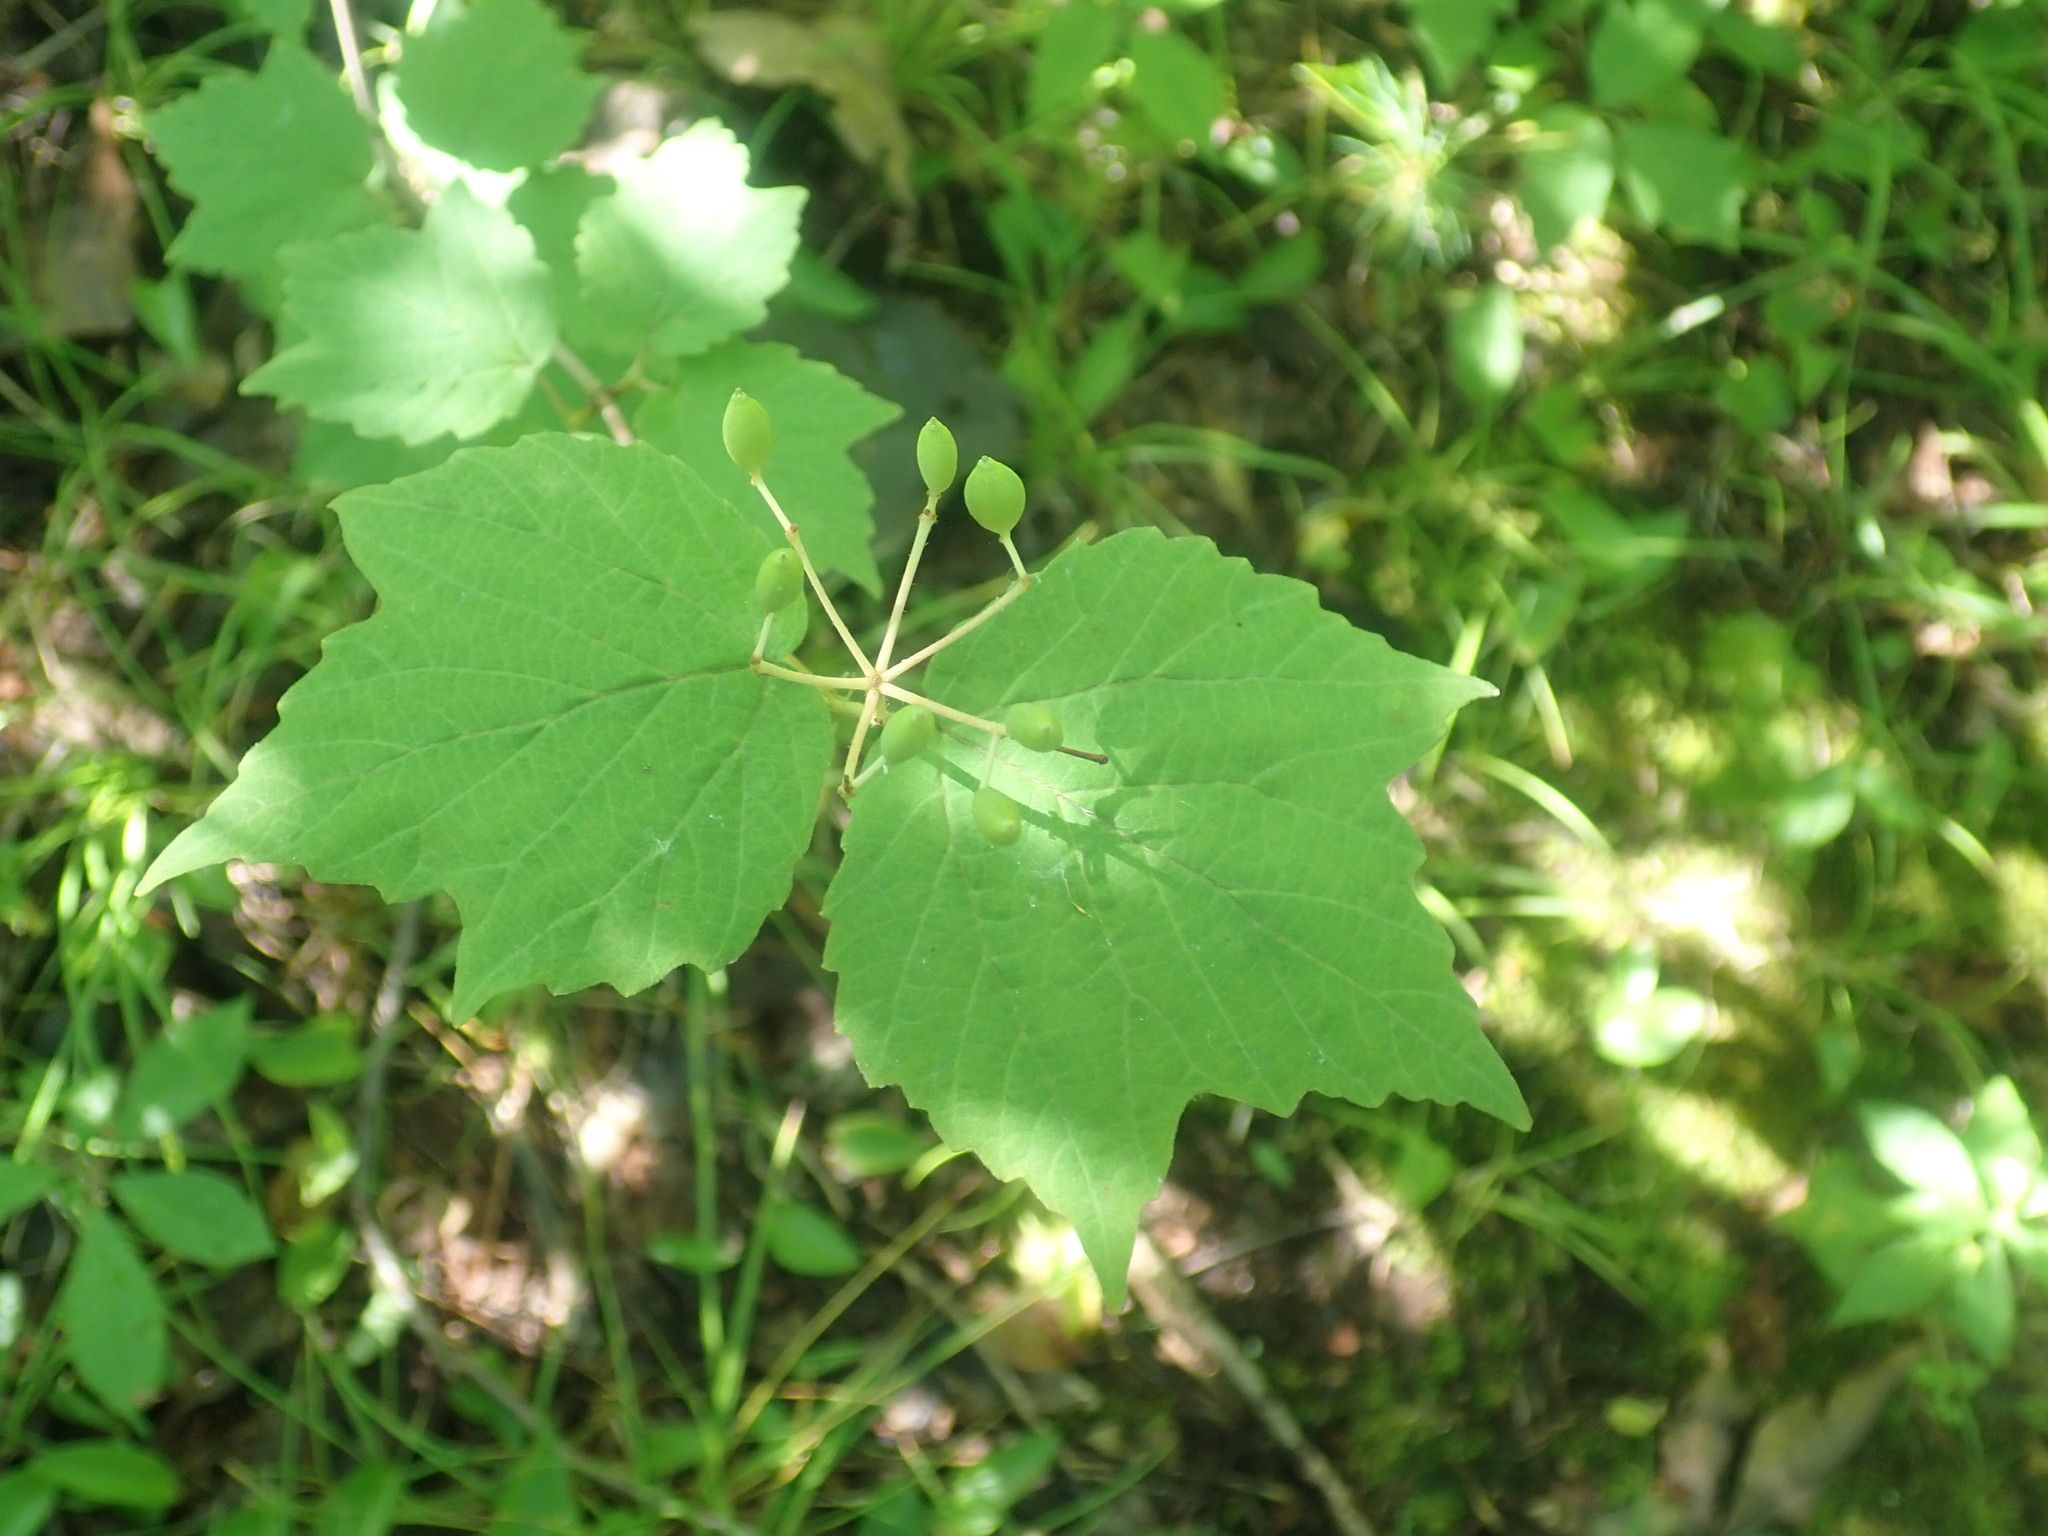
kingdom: Plantae
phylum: Tracheophyta
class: Magnoliopsida
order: Dipsacales
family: Viburnaceae
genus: Viburnum
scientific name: Viburnum acerifolium
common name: Dockmackie
